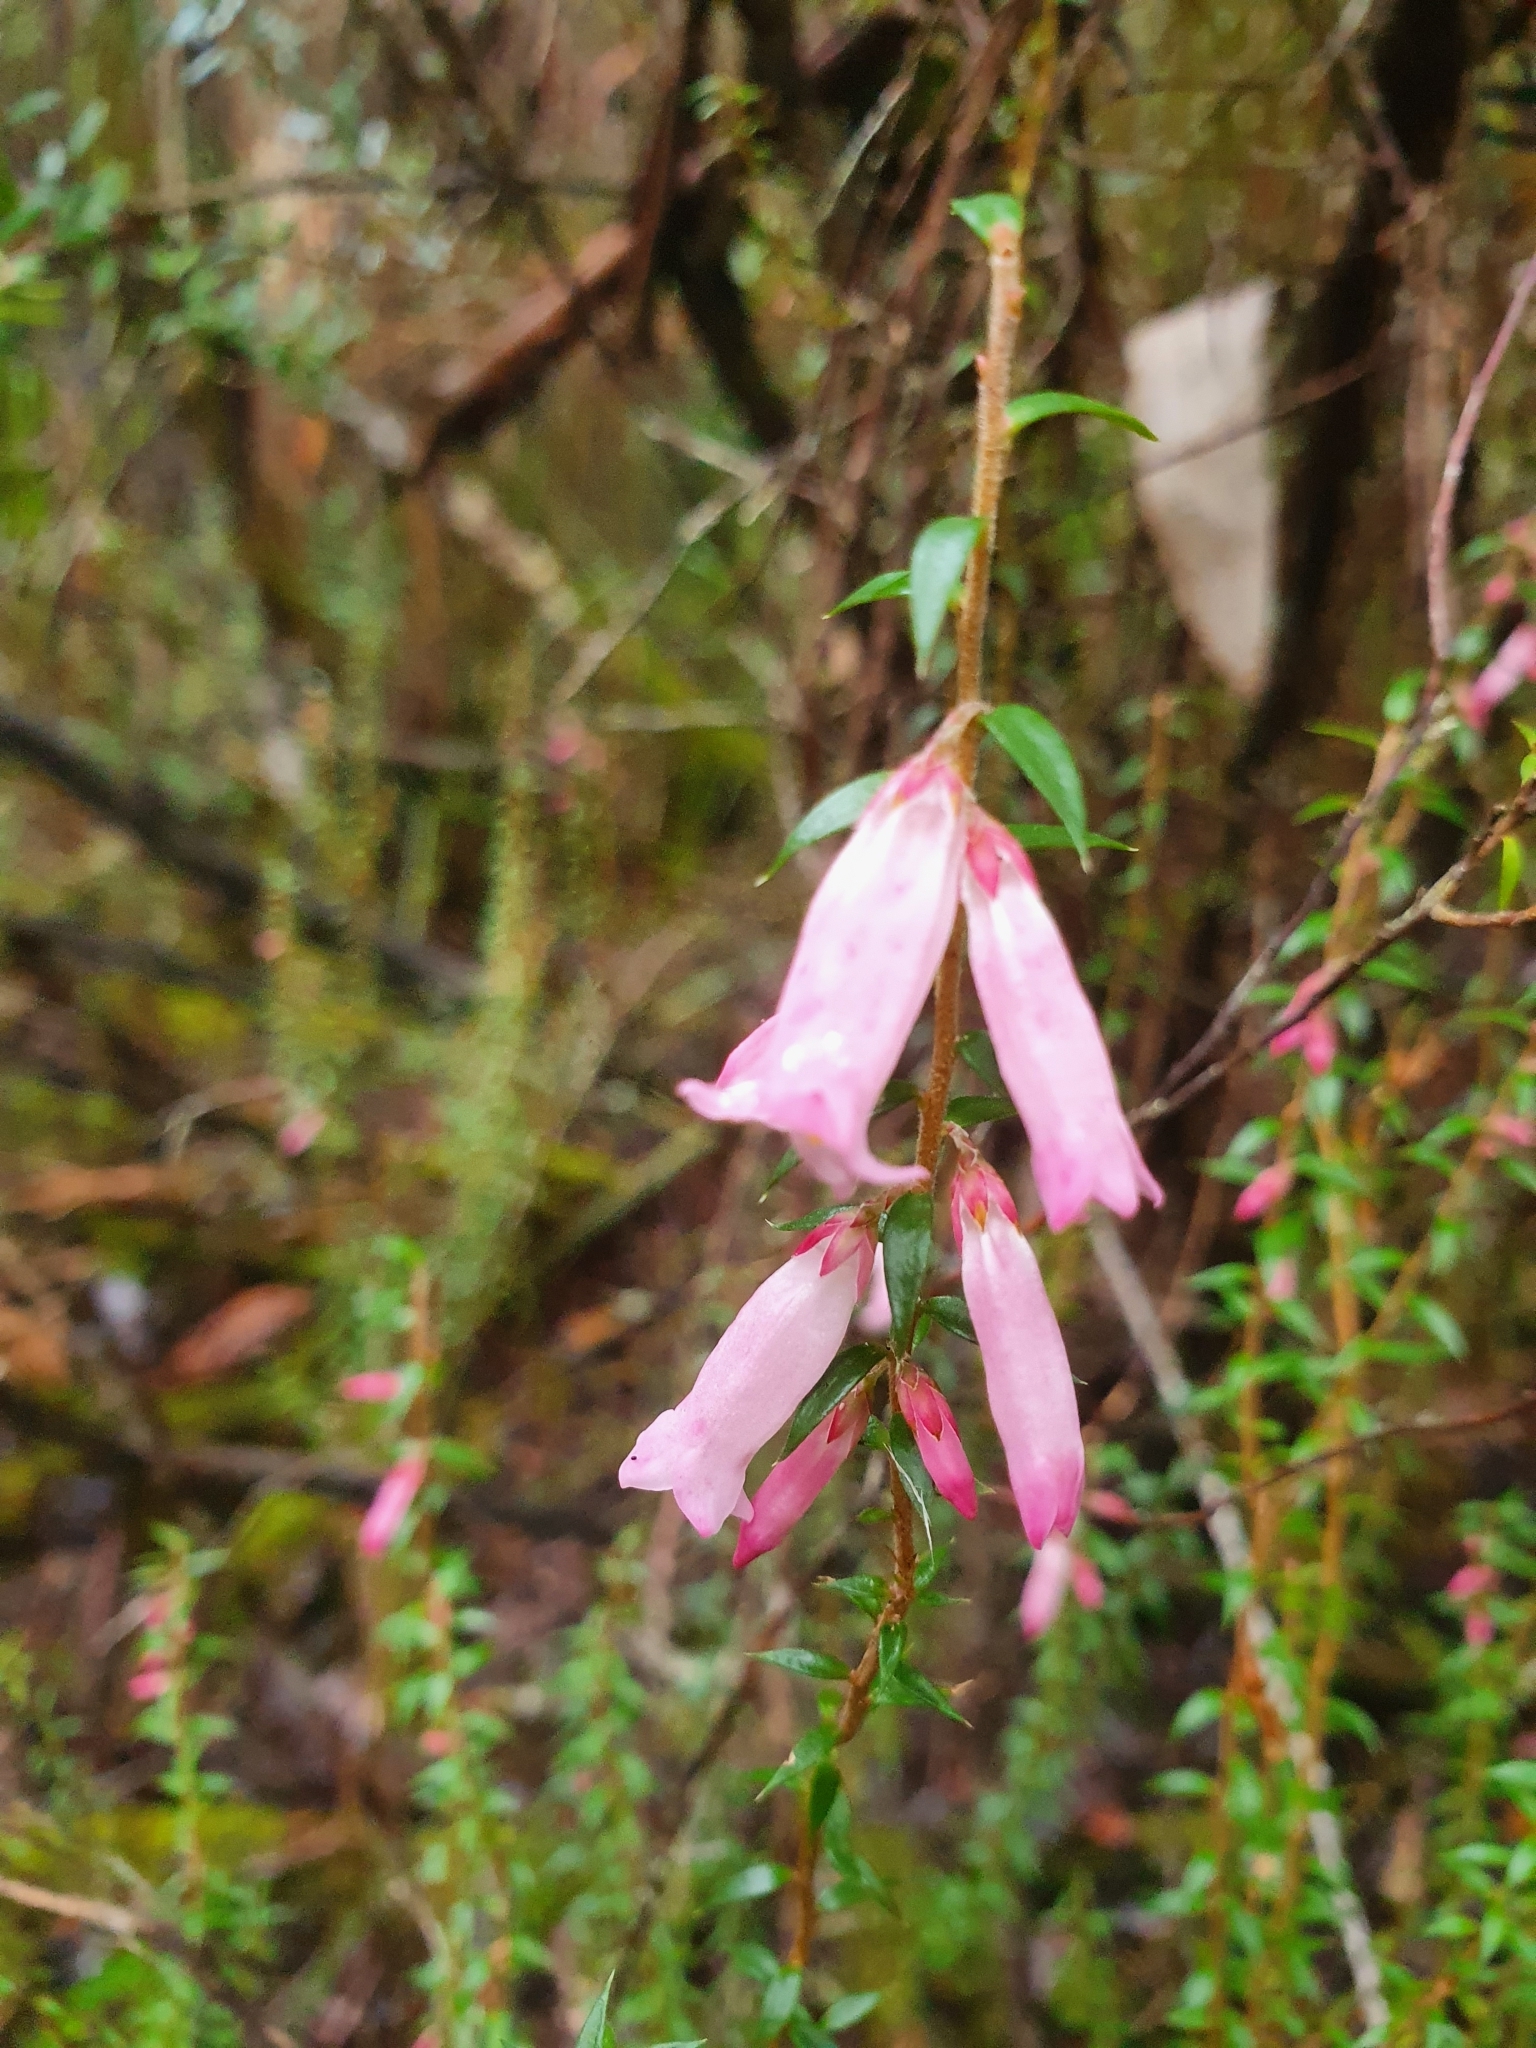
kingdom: Plantae
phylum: Tracheophyta
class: Magnoliopsida
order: Ericales
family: Ericaceae
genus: Epacris
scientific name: Epacris impressa
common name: Common-heath
